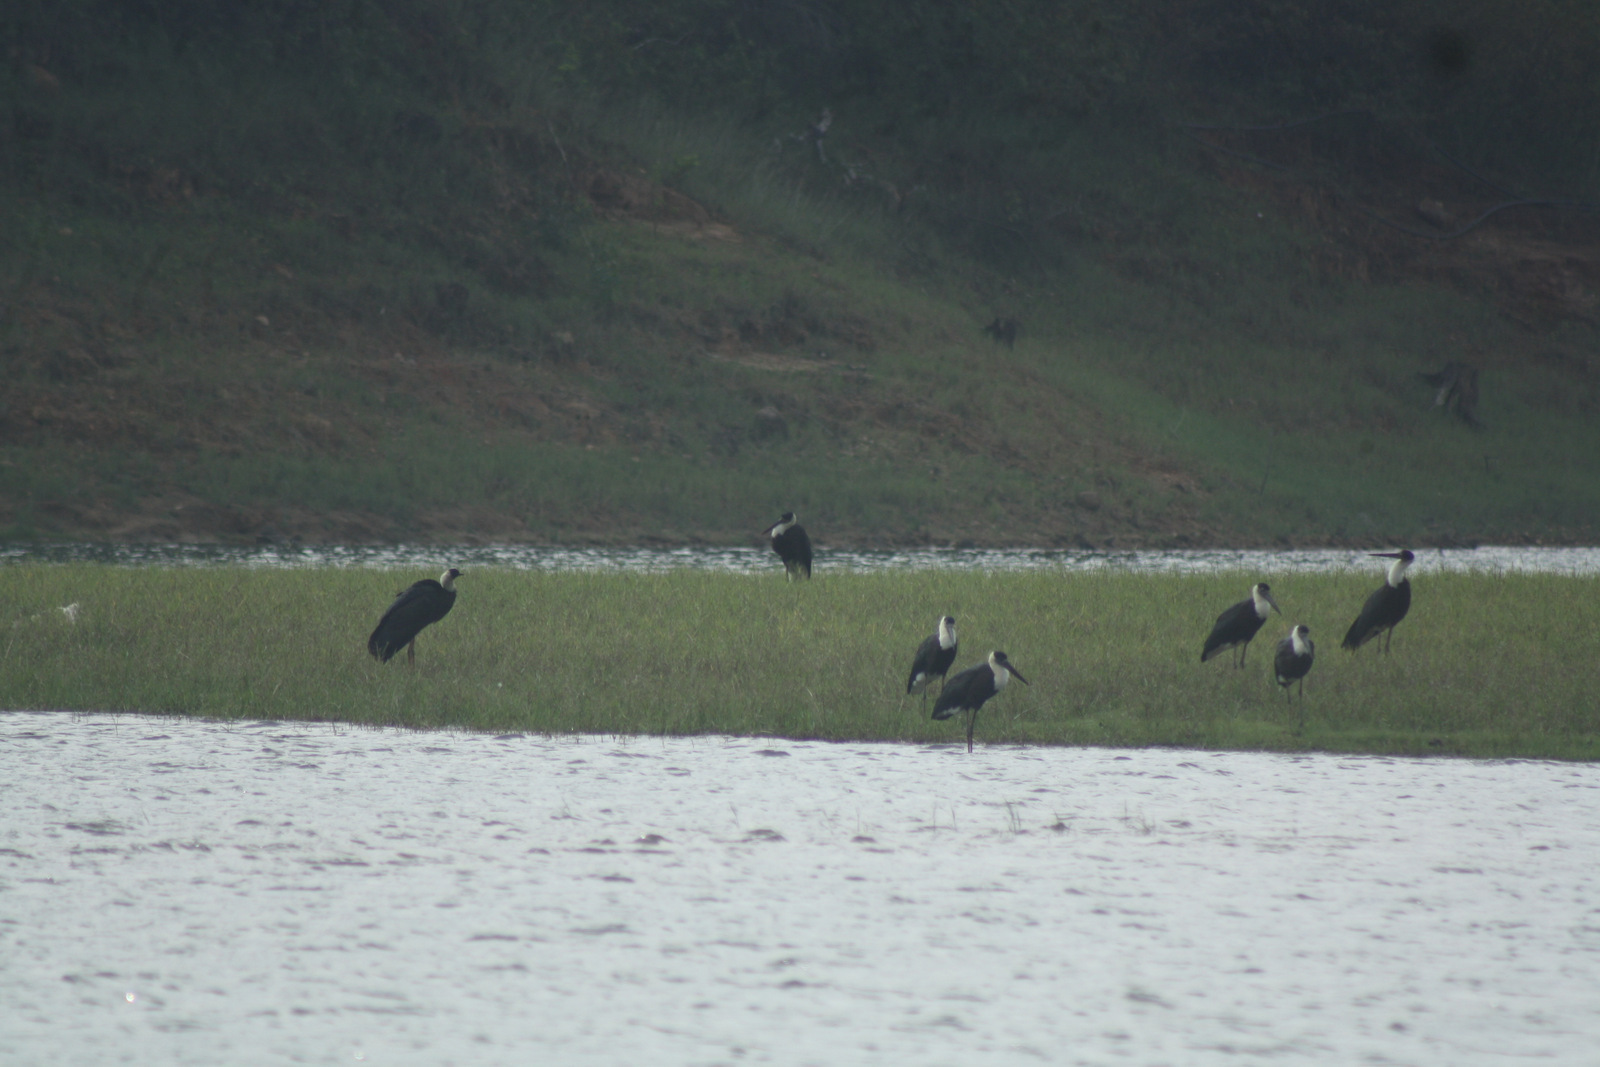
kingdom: Animalia
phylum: Chordata
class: Aves
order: Ciconiiformes
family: Ciconiidae
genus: Ciconia
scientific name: Ciconia episcopus
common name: Woolly-necked stork
